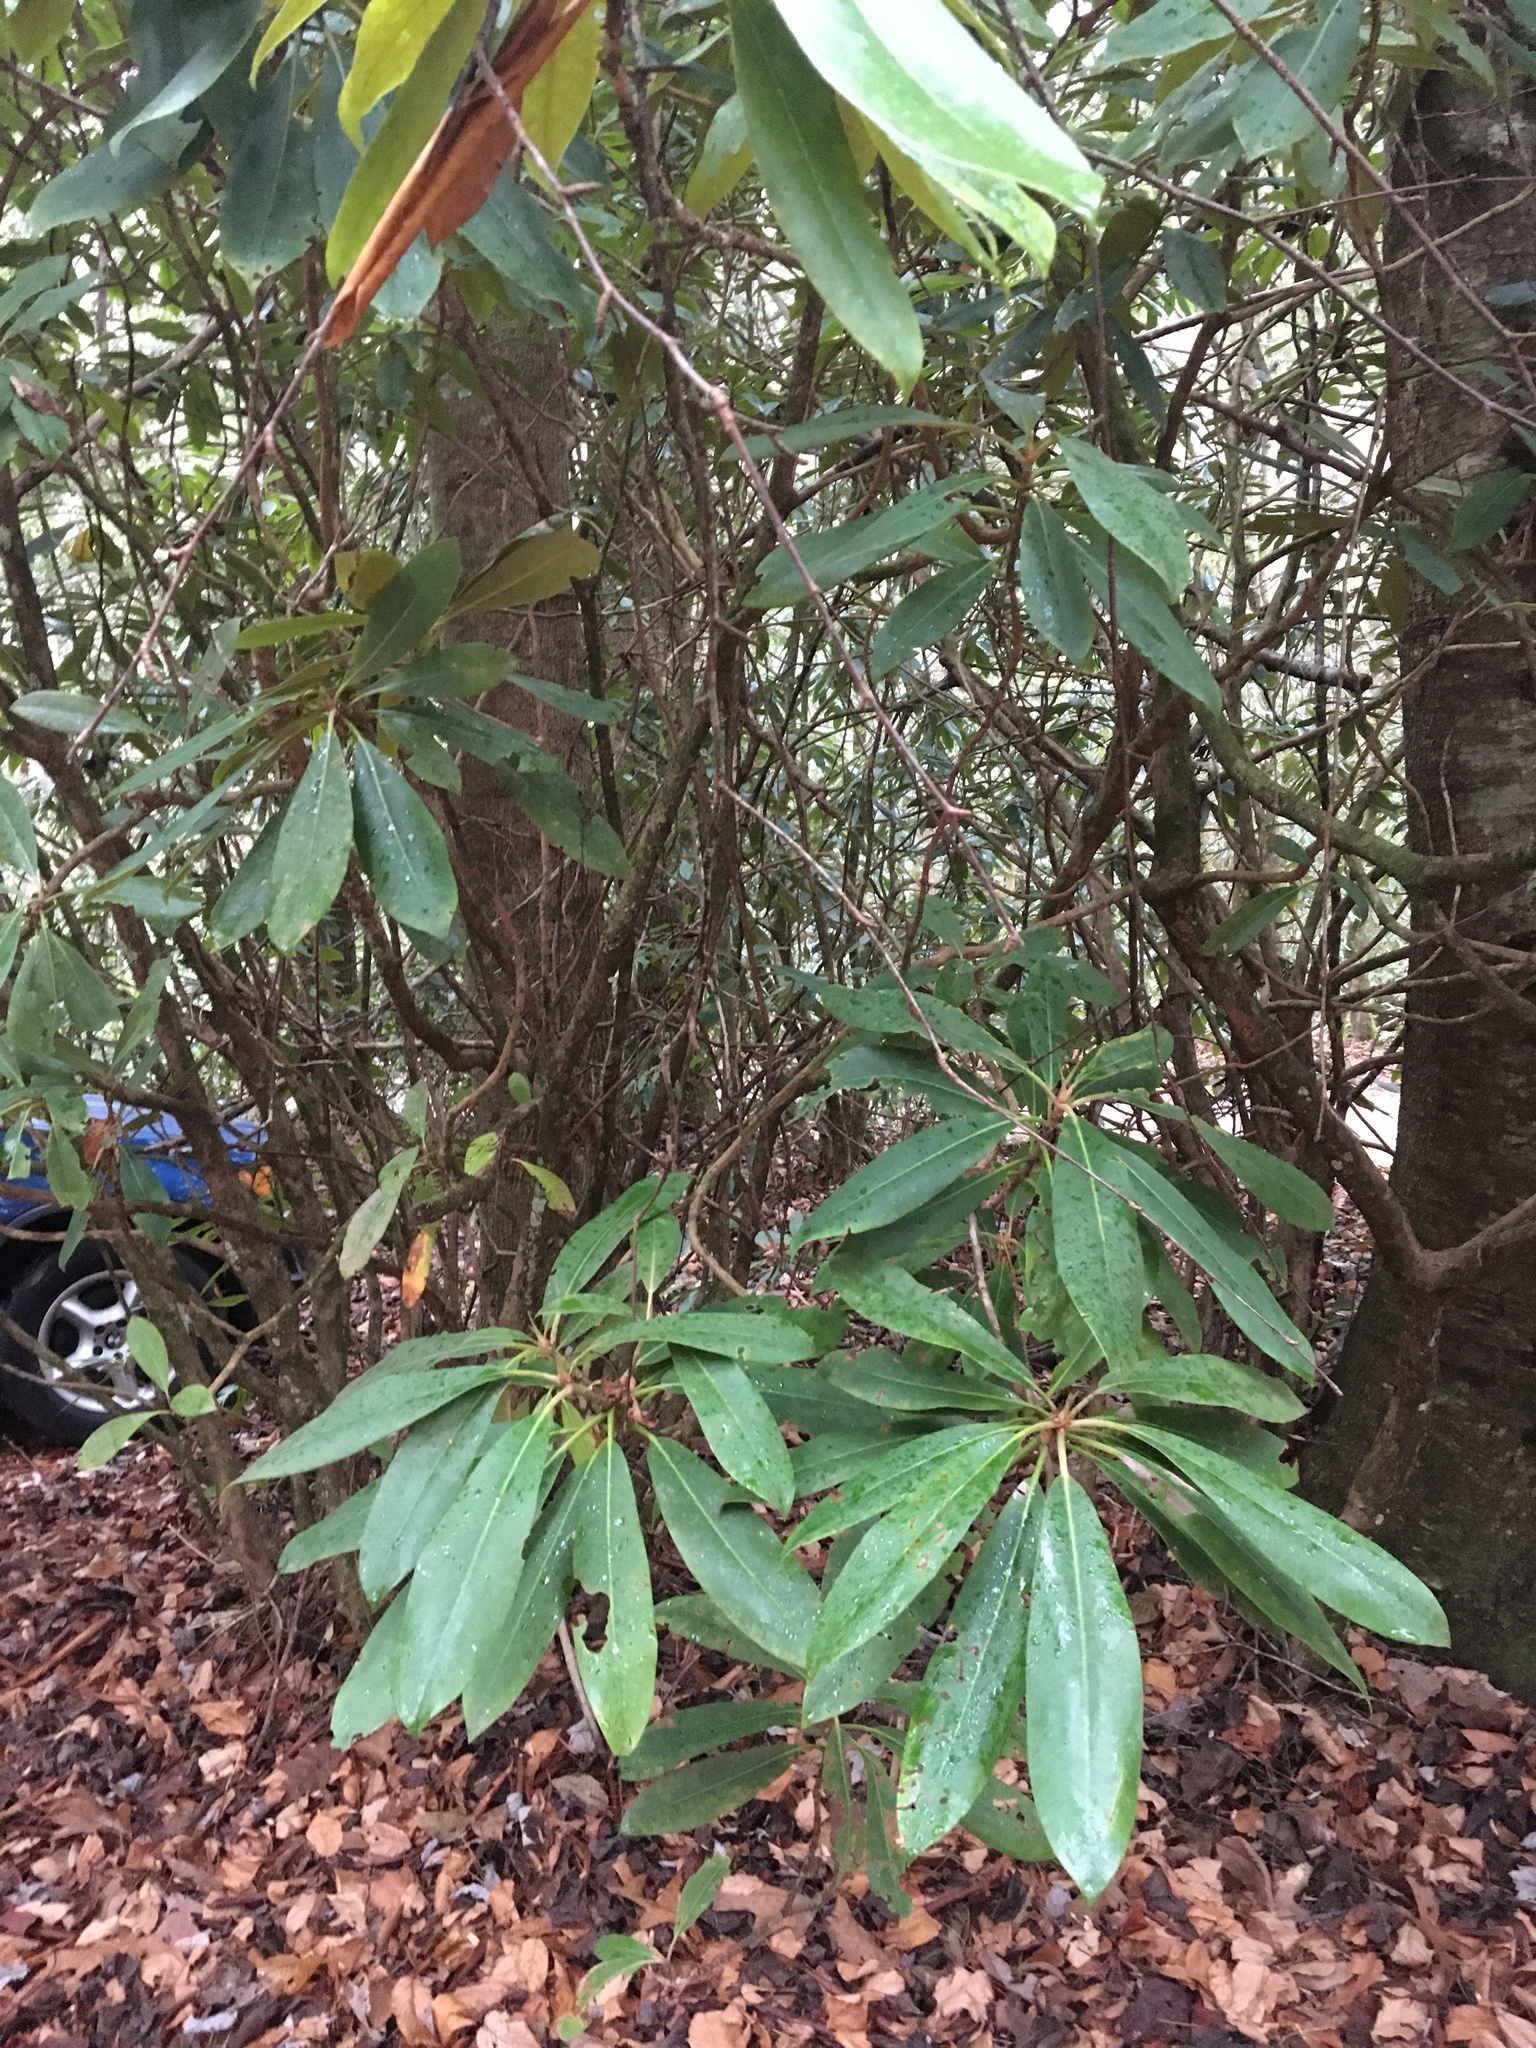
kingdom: Plantae
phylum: Tracheophyta
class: Magnoliopsida
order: Ericales
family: Ericaceae
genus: Rhododendron
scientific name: Rhododendron maximum
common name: Great rhododendron
